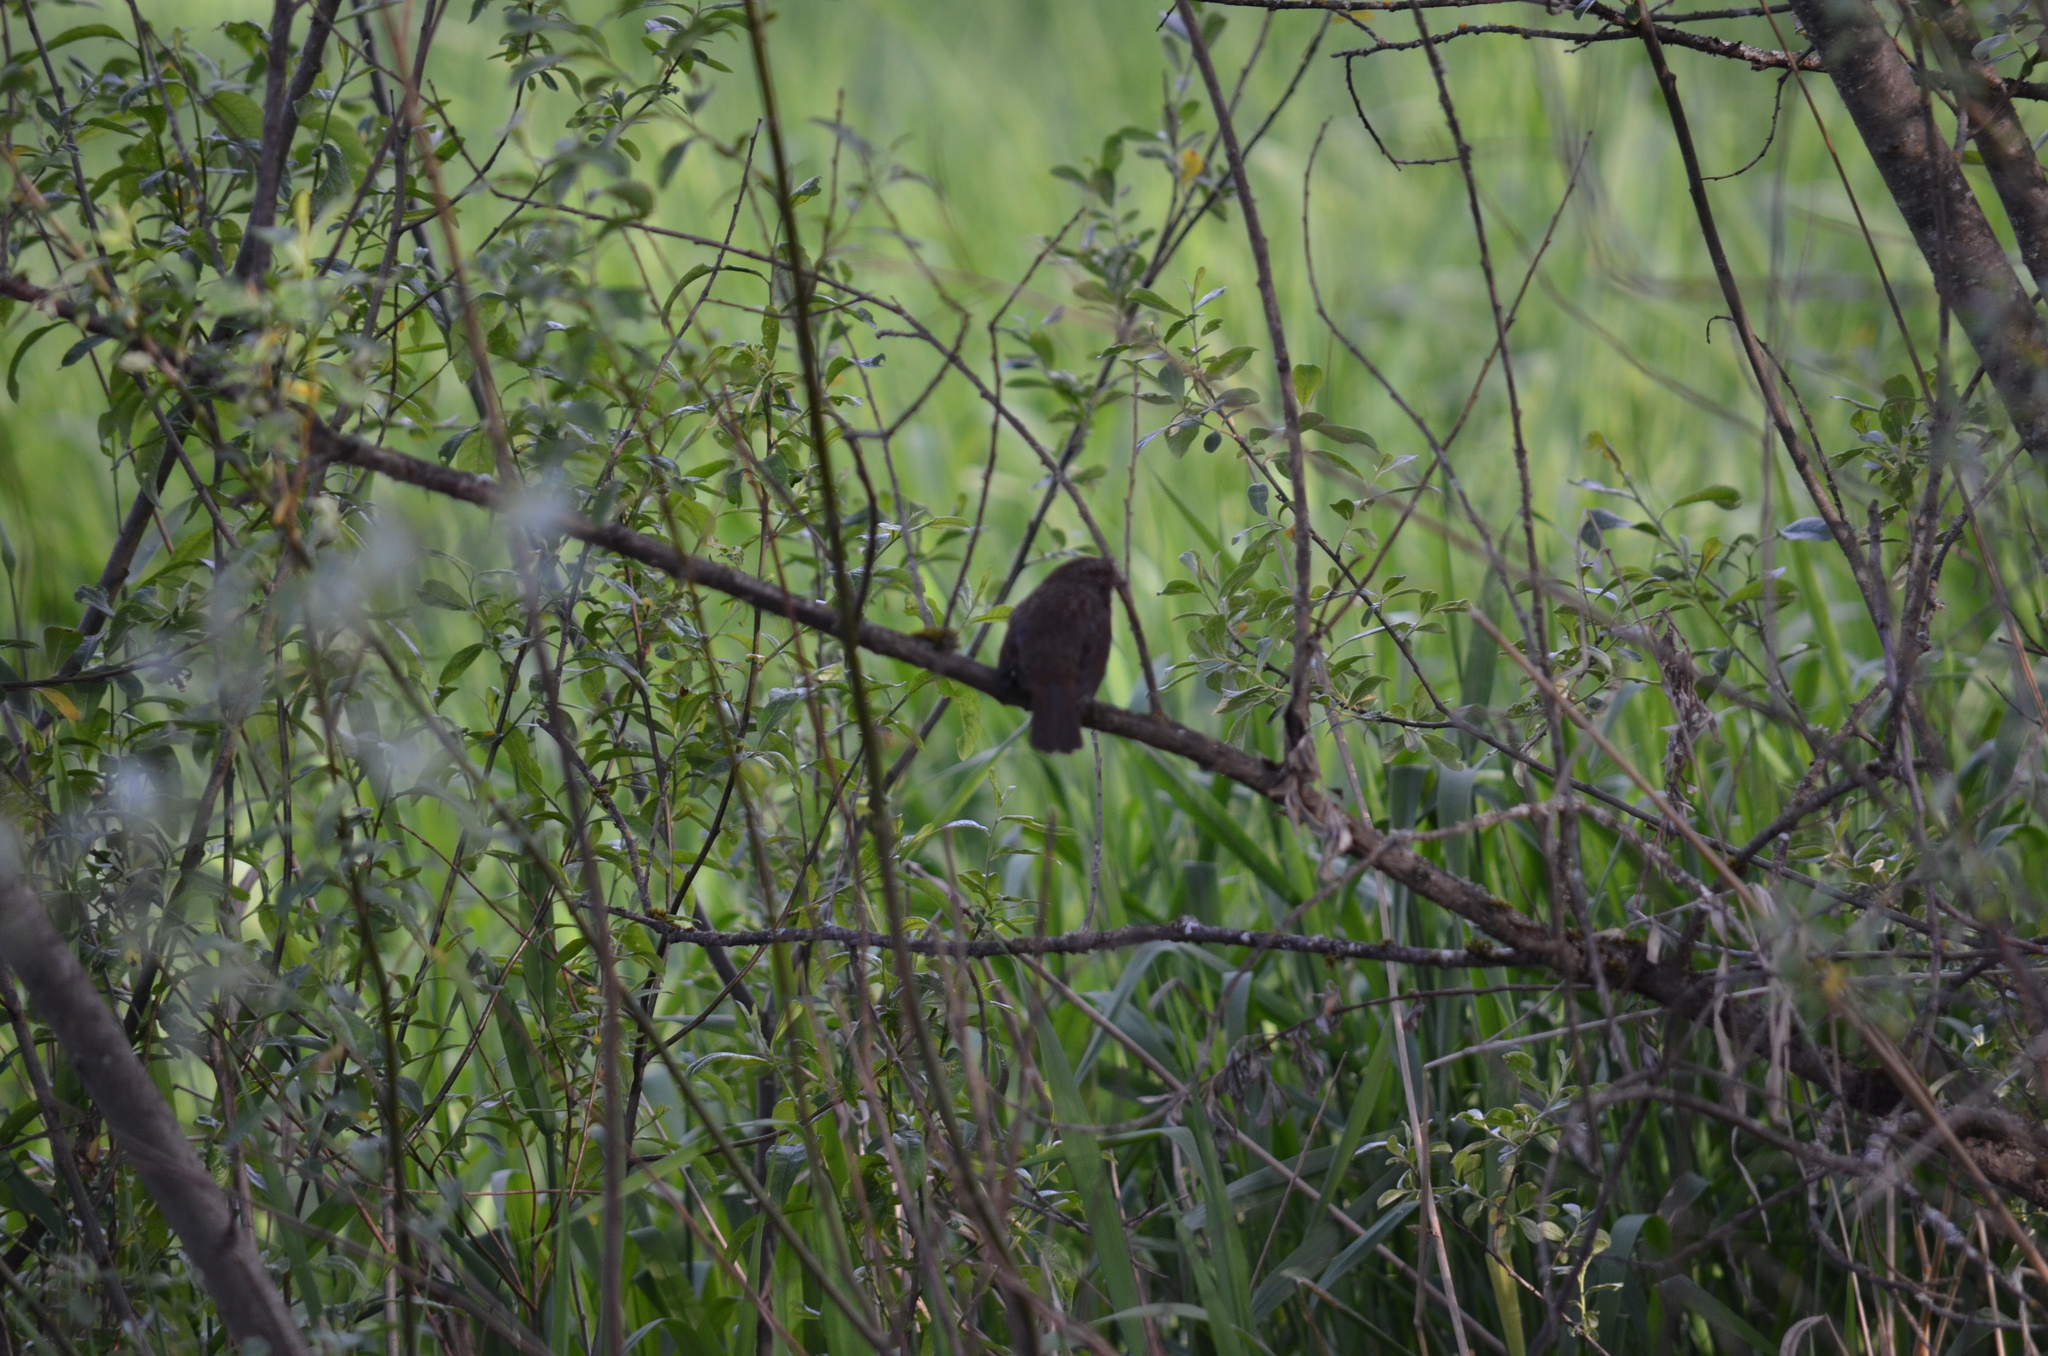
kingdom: Animalia
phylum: Chordata
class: Aves
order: Passeriformes
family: Passerellidae
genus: Melospiza
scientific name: Melospiza melodia
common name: Song sparrow
